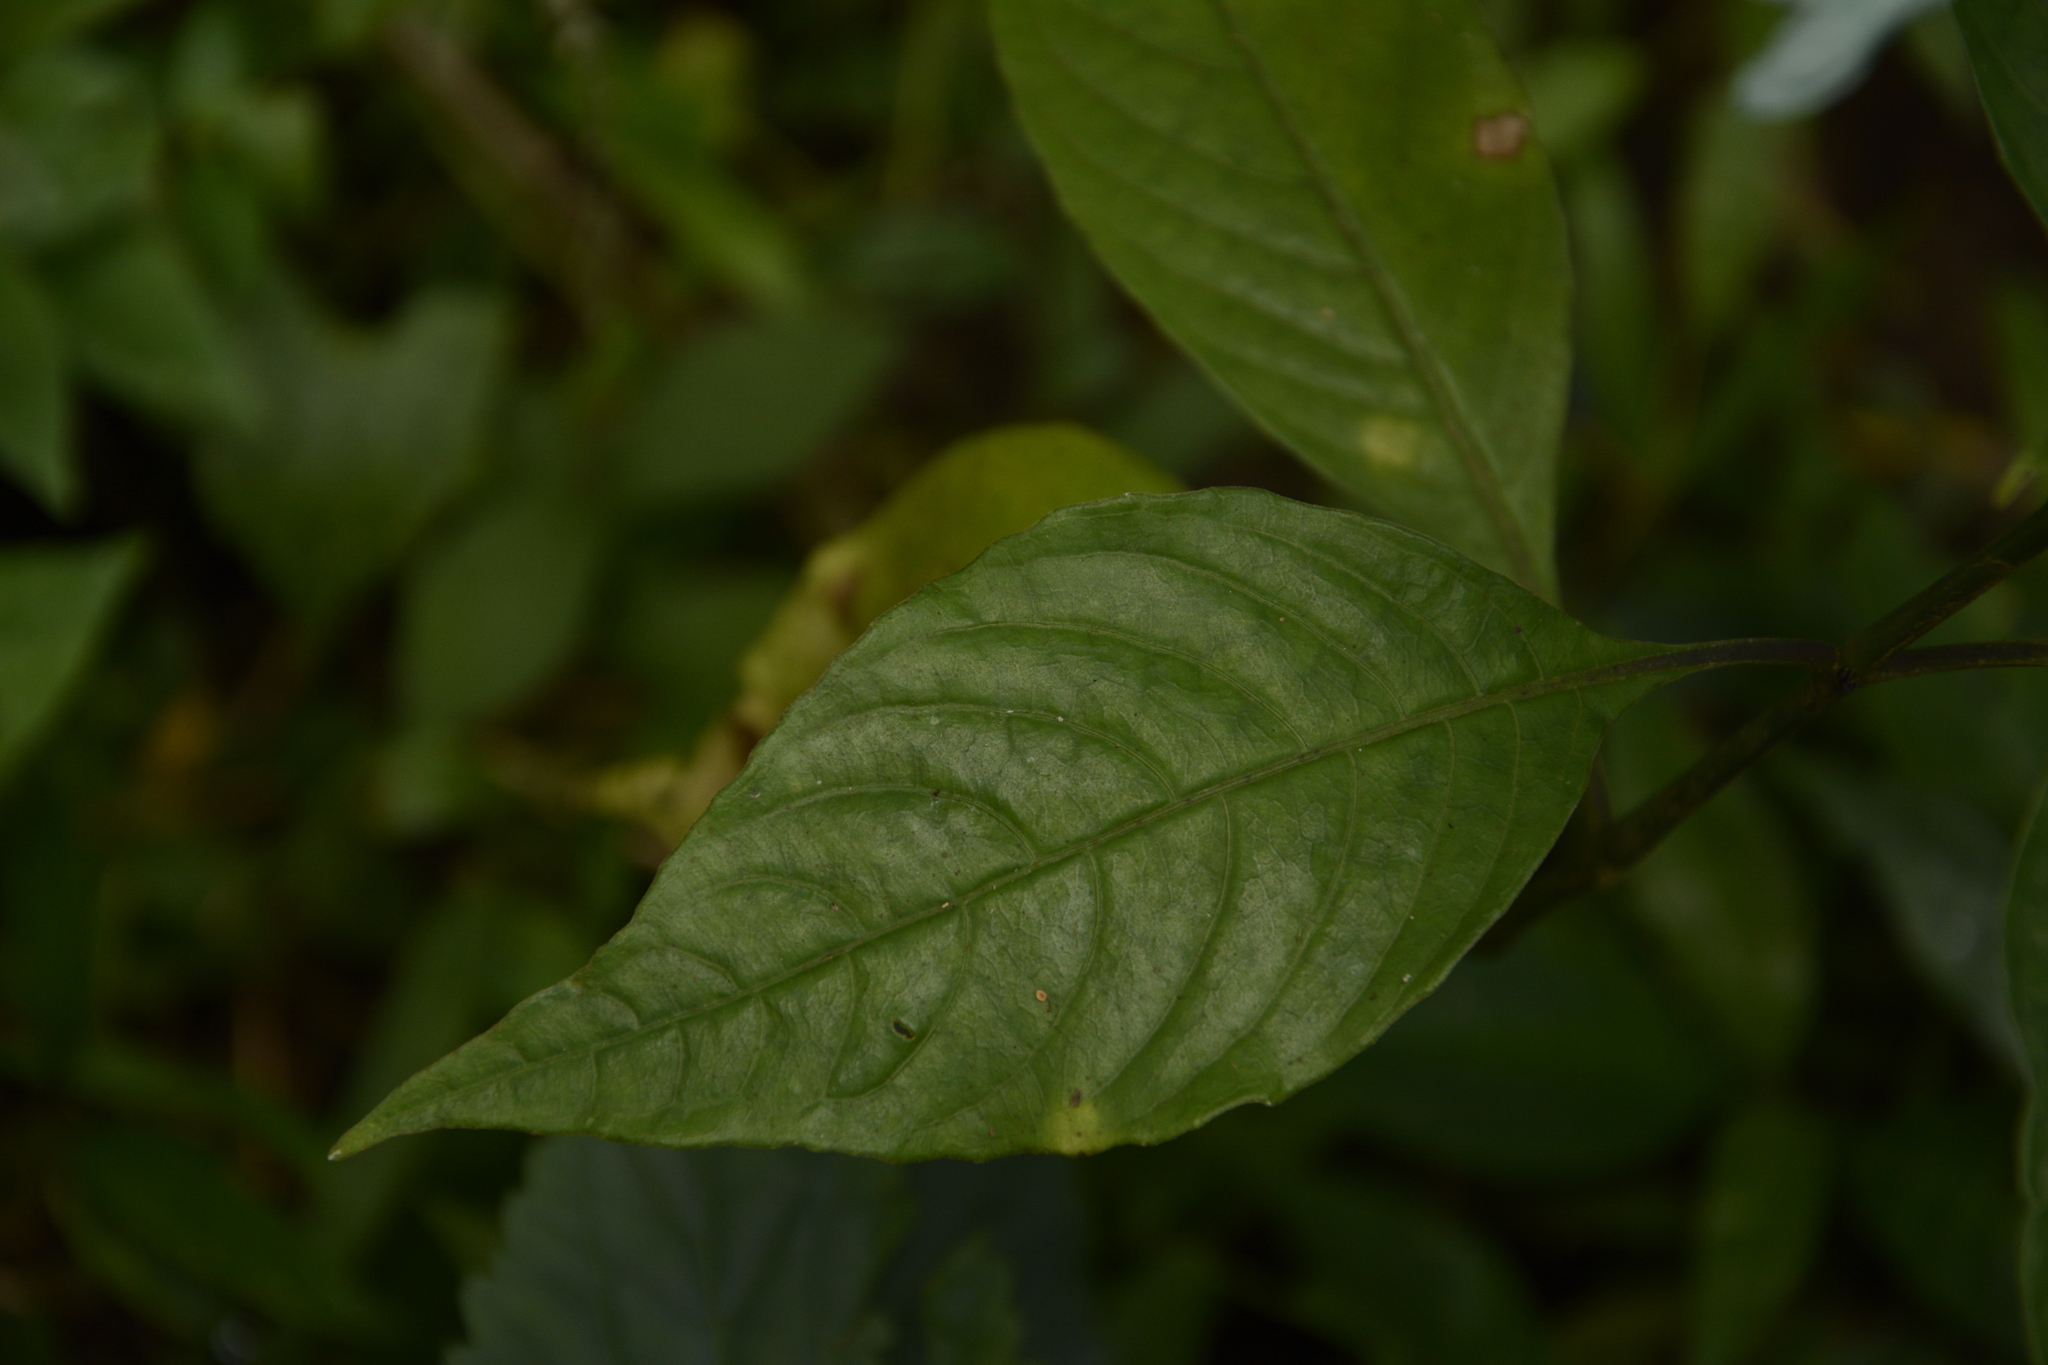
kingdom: Plantae
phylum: Tracheophyta
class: Magnoliopsida
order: Lamiales
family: Acanthaceae
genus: Ecbolium
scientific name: Ecbolium ligustrinum
